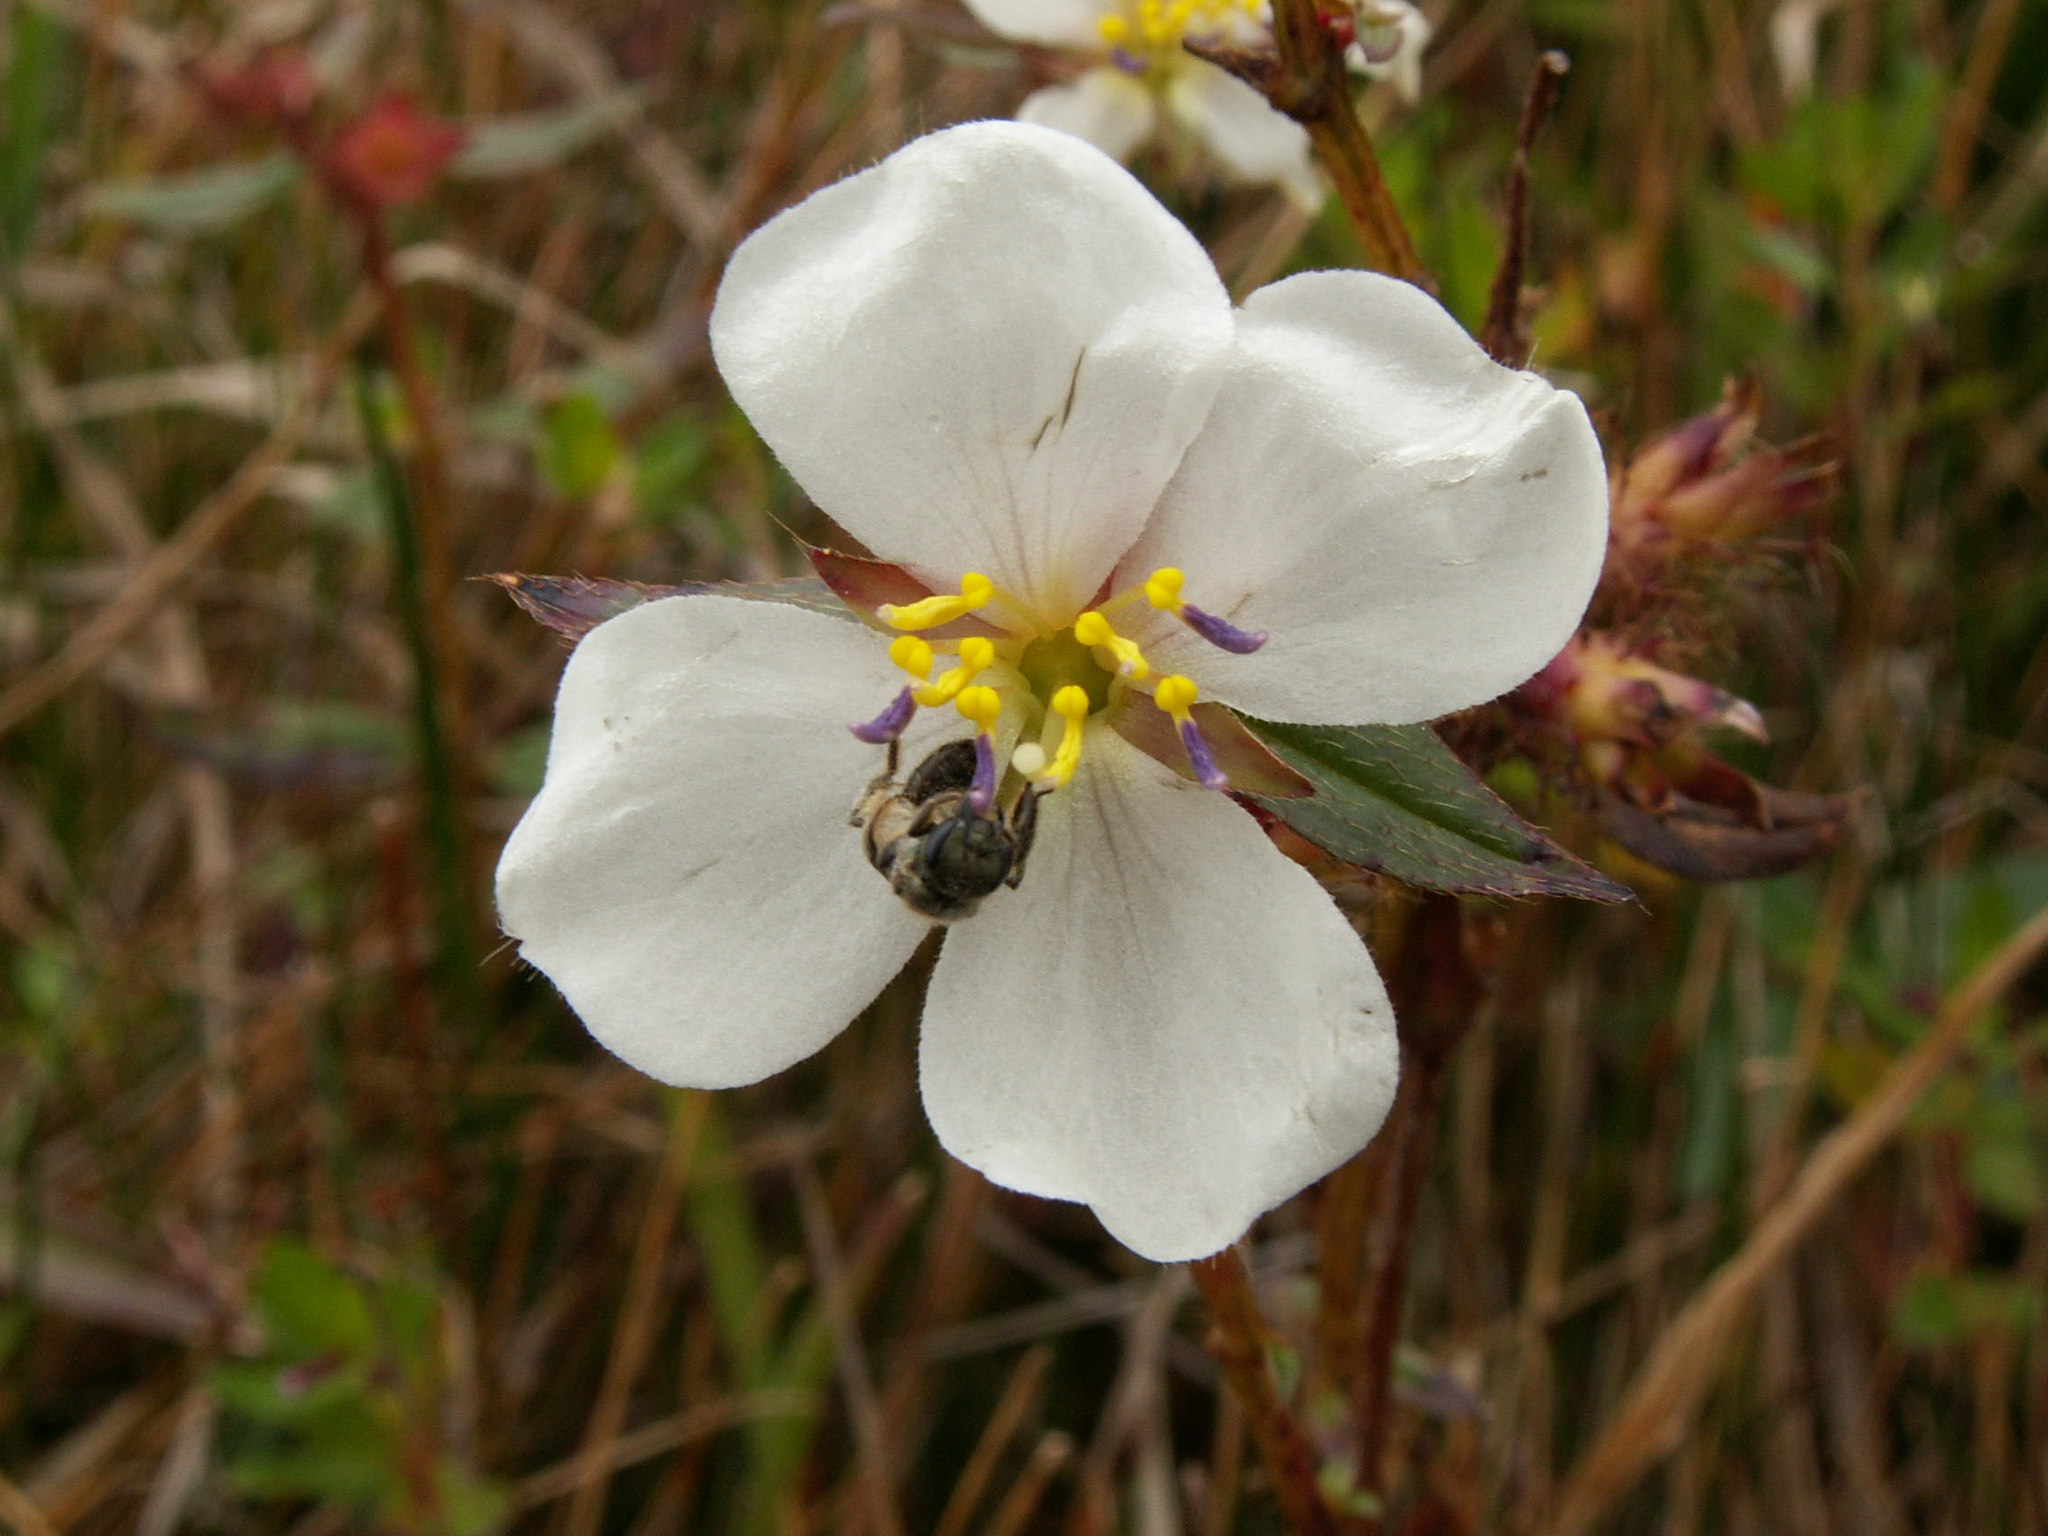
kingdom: Plantae
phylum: Tracheophyta
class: Magnoliopsida
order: Myrtales
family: Melastomataceae
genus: Pterolepis
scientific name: Pterolepis glomerata
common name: False meadowbeauty
